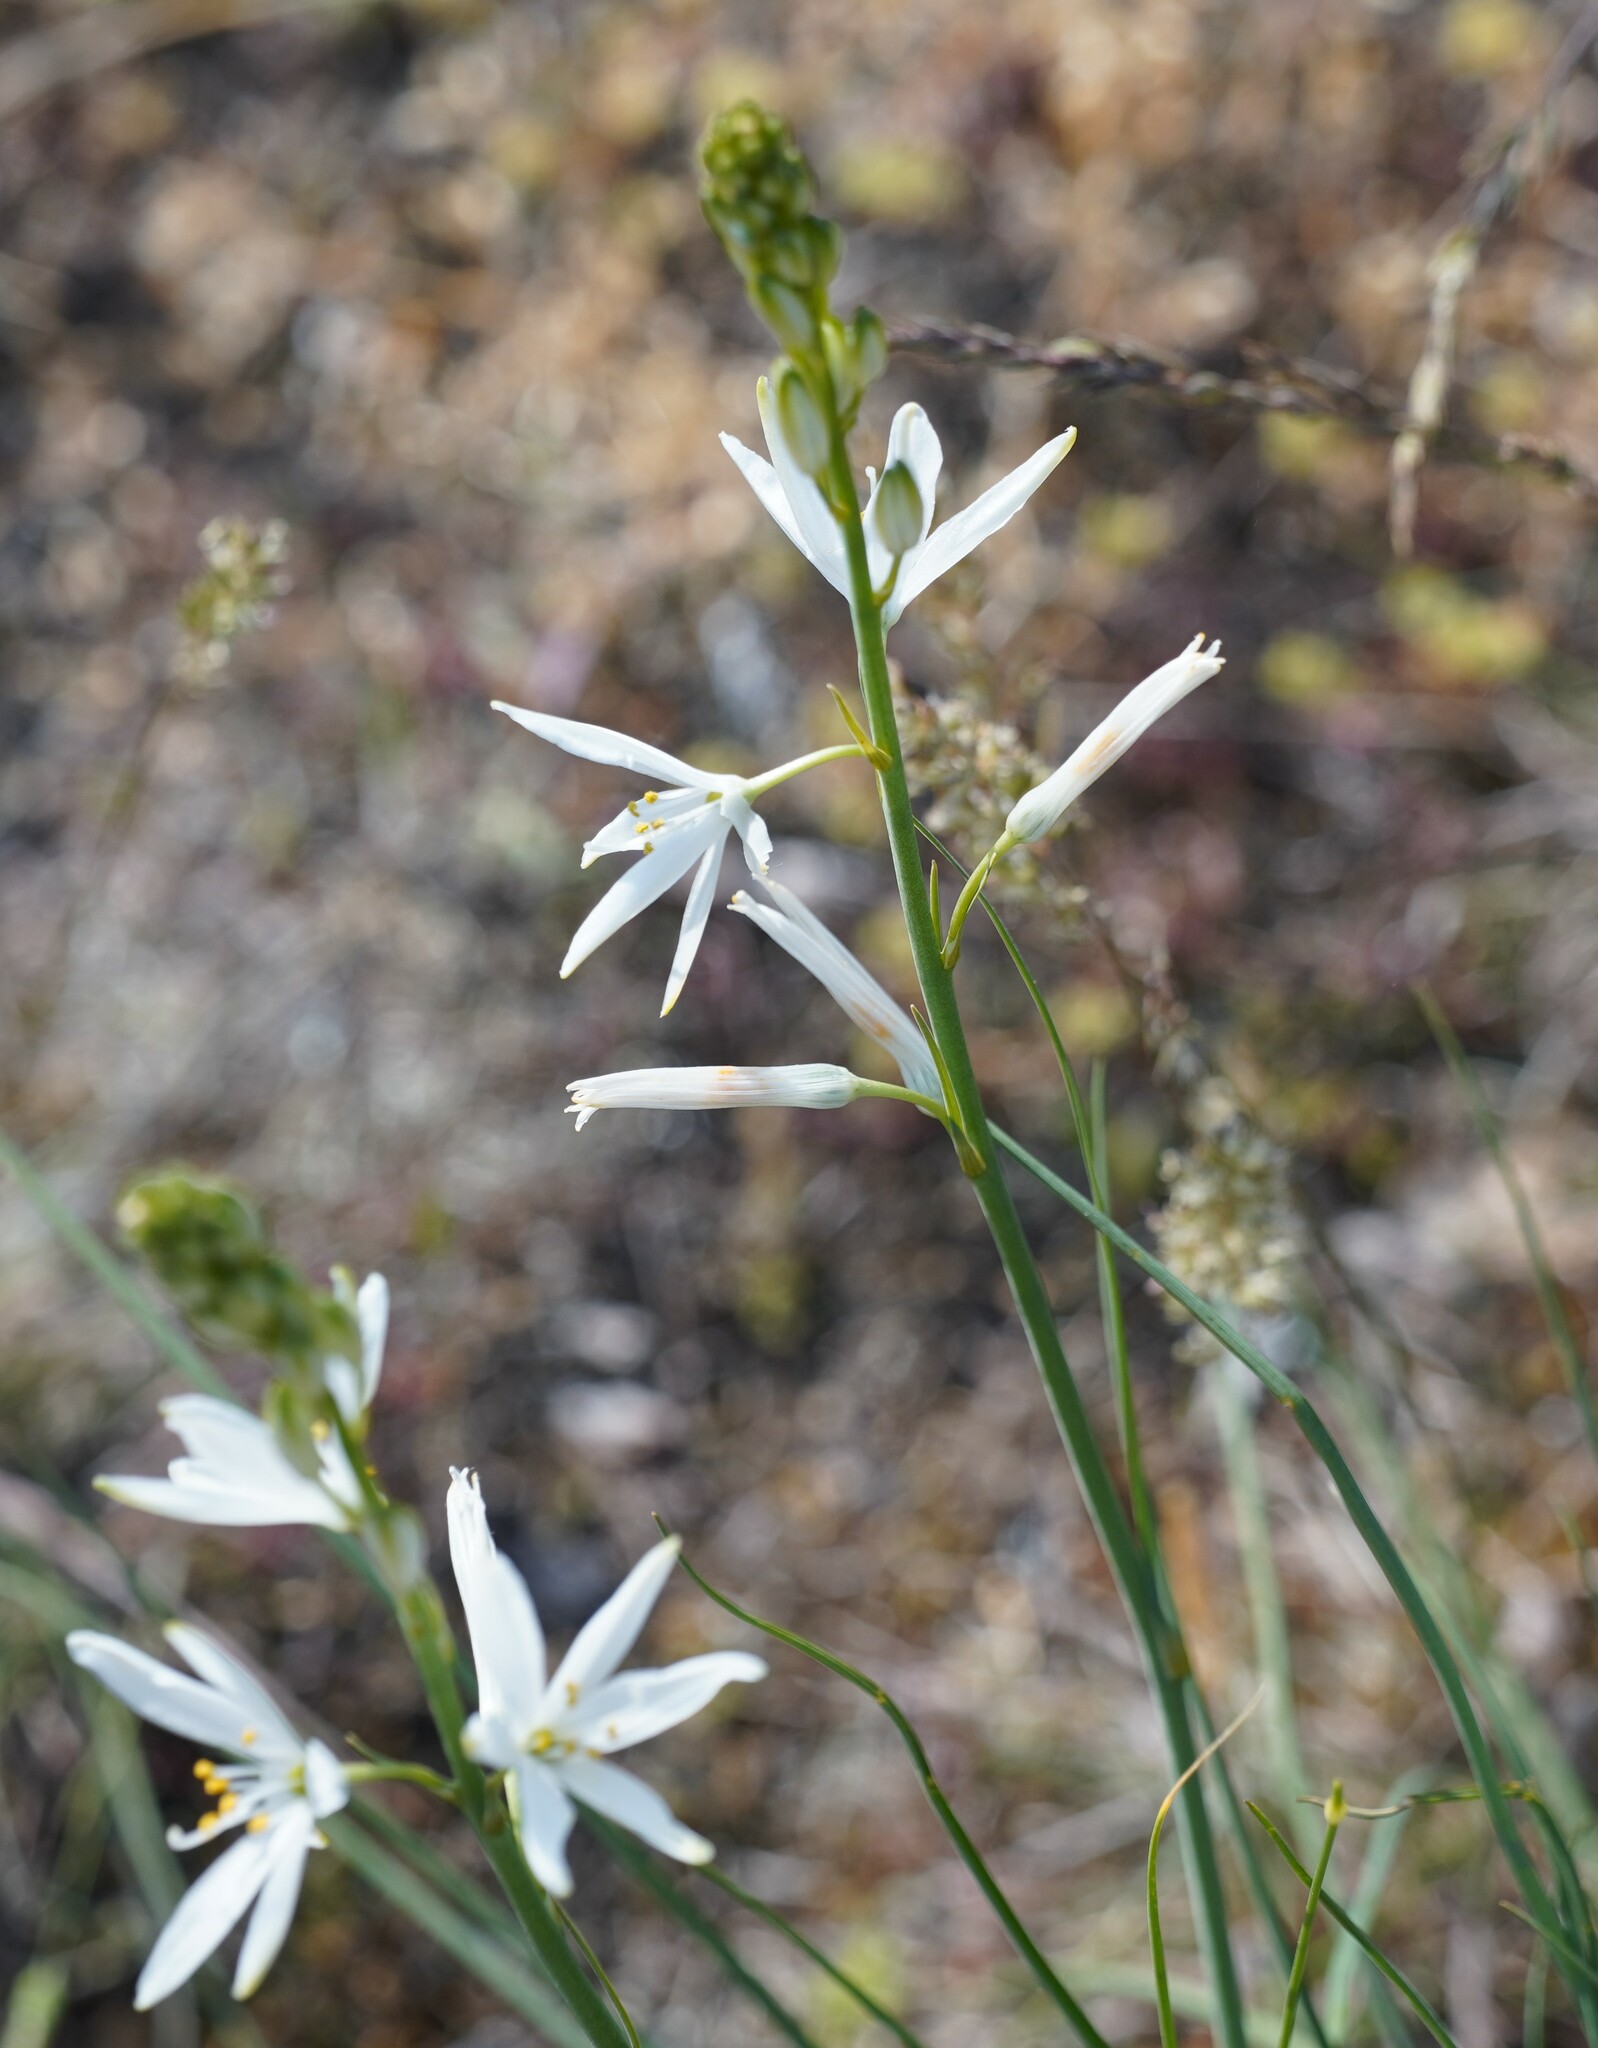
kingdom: Plantae
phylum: Tracheophyta
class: Liliopsida
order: Asparagales
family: Asparagaceae
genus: Anthericum
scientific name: Anthericum liliago
